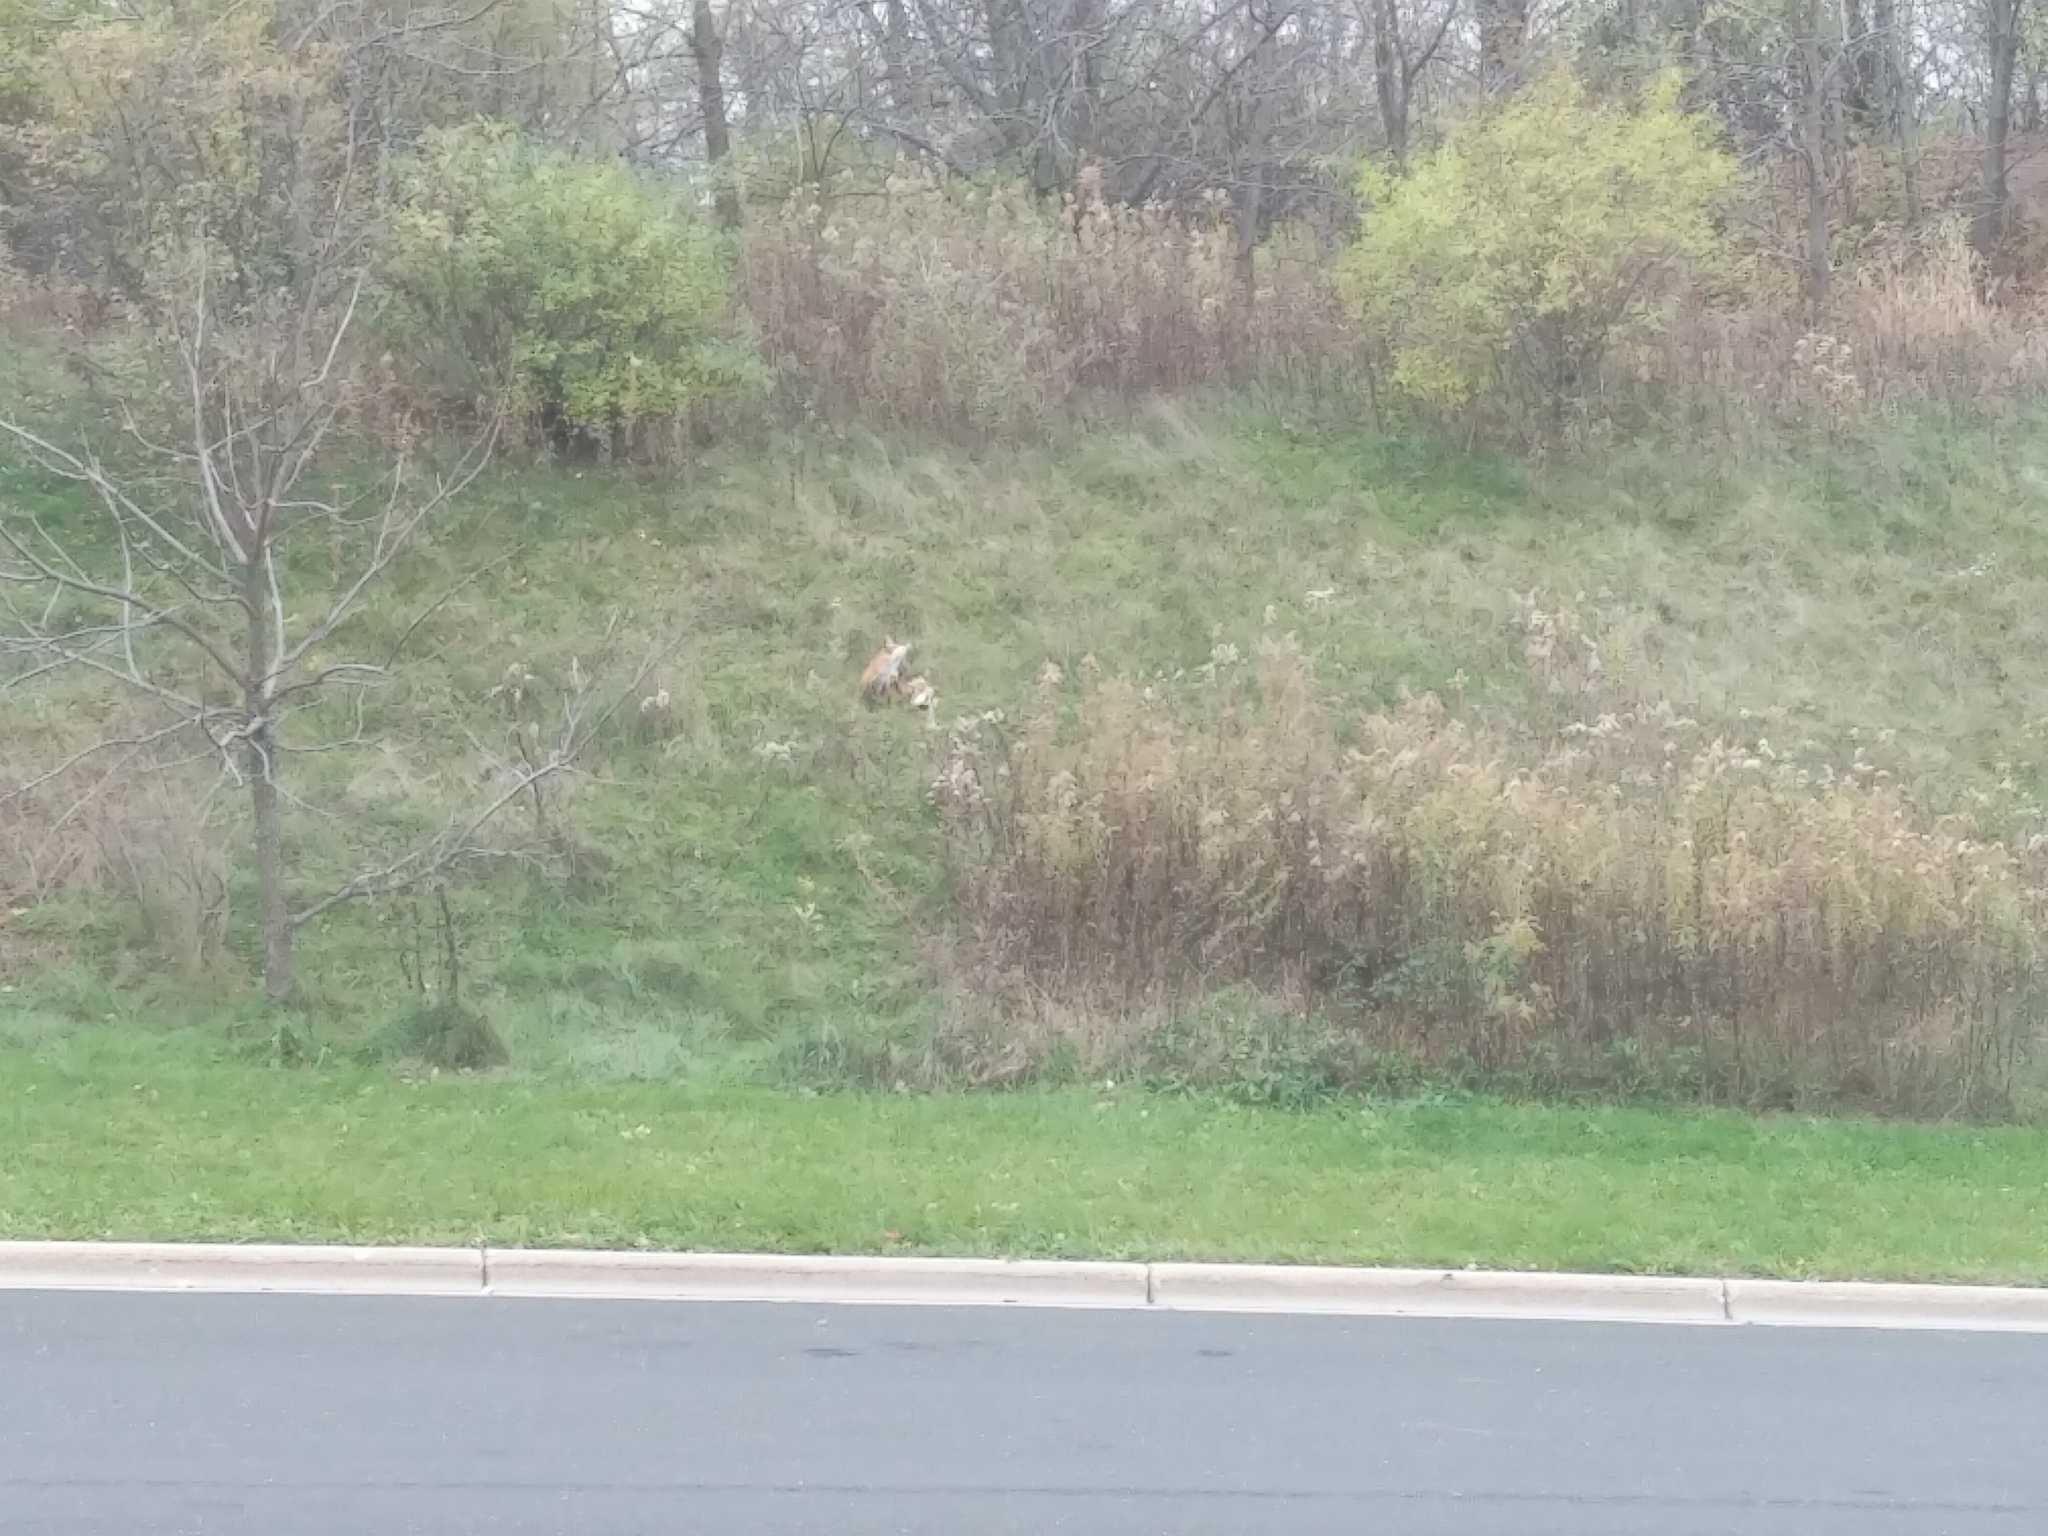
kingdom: Animalia
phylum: Chordata
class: Mammalia
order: Carnivora
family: Canidae
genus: Vulpes
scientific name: Vulpes vulpes
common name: Red fox
